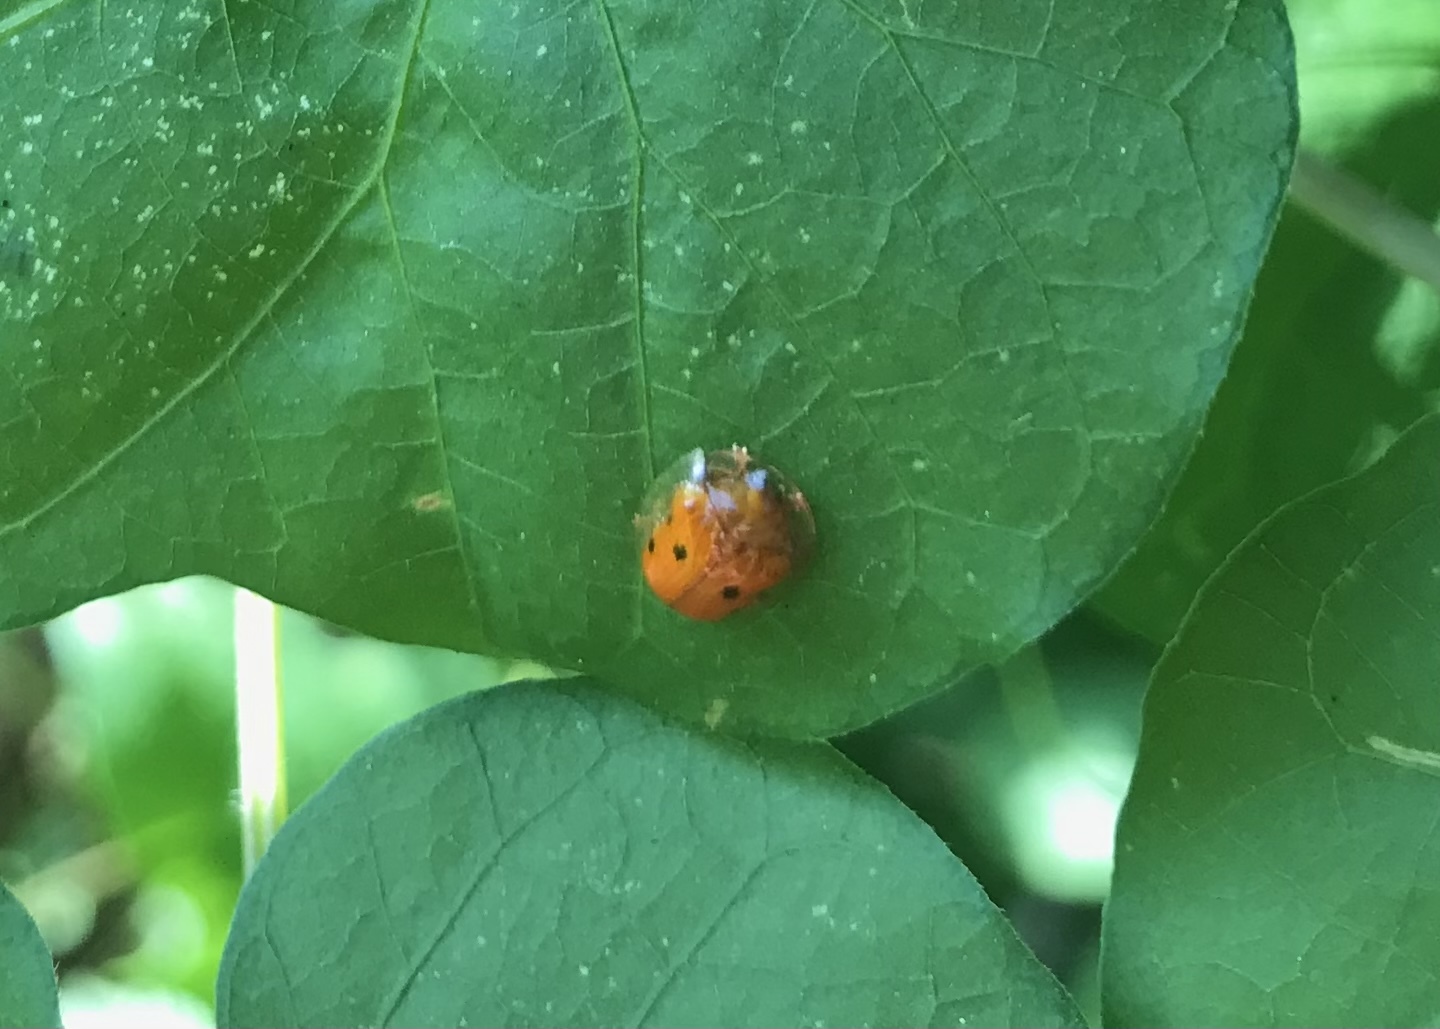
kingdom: Animalia
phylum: Arthropoda
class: Insecta
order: Coleoptera
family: Chrysomelidae
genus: Charidotella
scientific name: Charidotella sexpunctata
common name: Golden tortoise beetle
